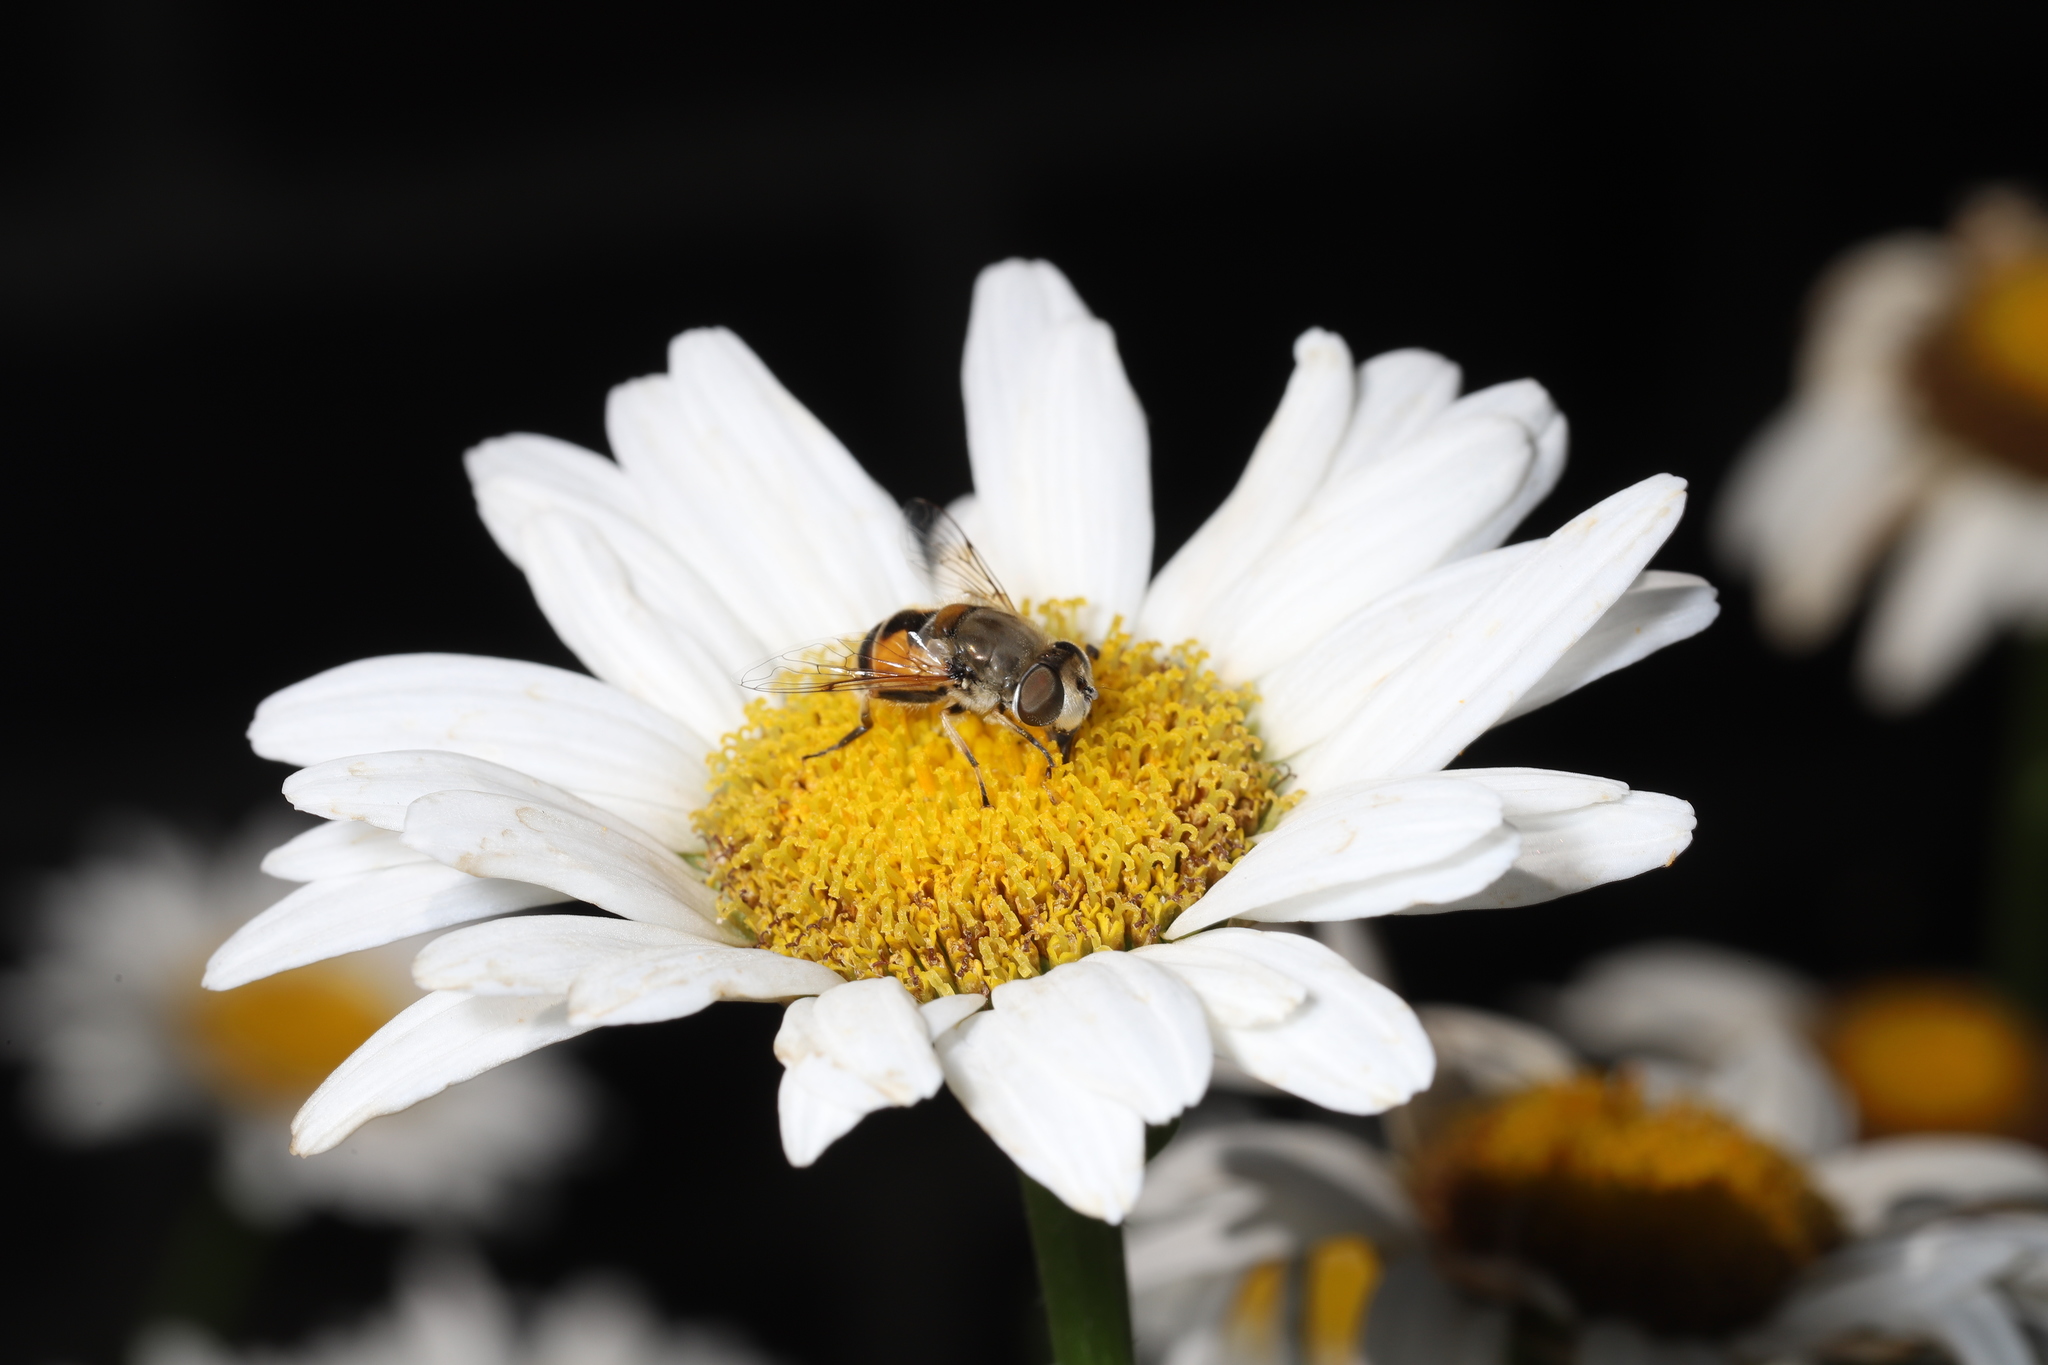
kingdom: Animalia
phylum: Arthropoda
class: Insecta
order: Diptera
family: Syrphidae
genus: Eristalis
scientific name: Eristalis arbustorum
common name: Hover fly
